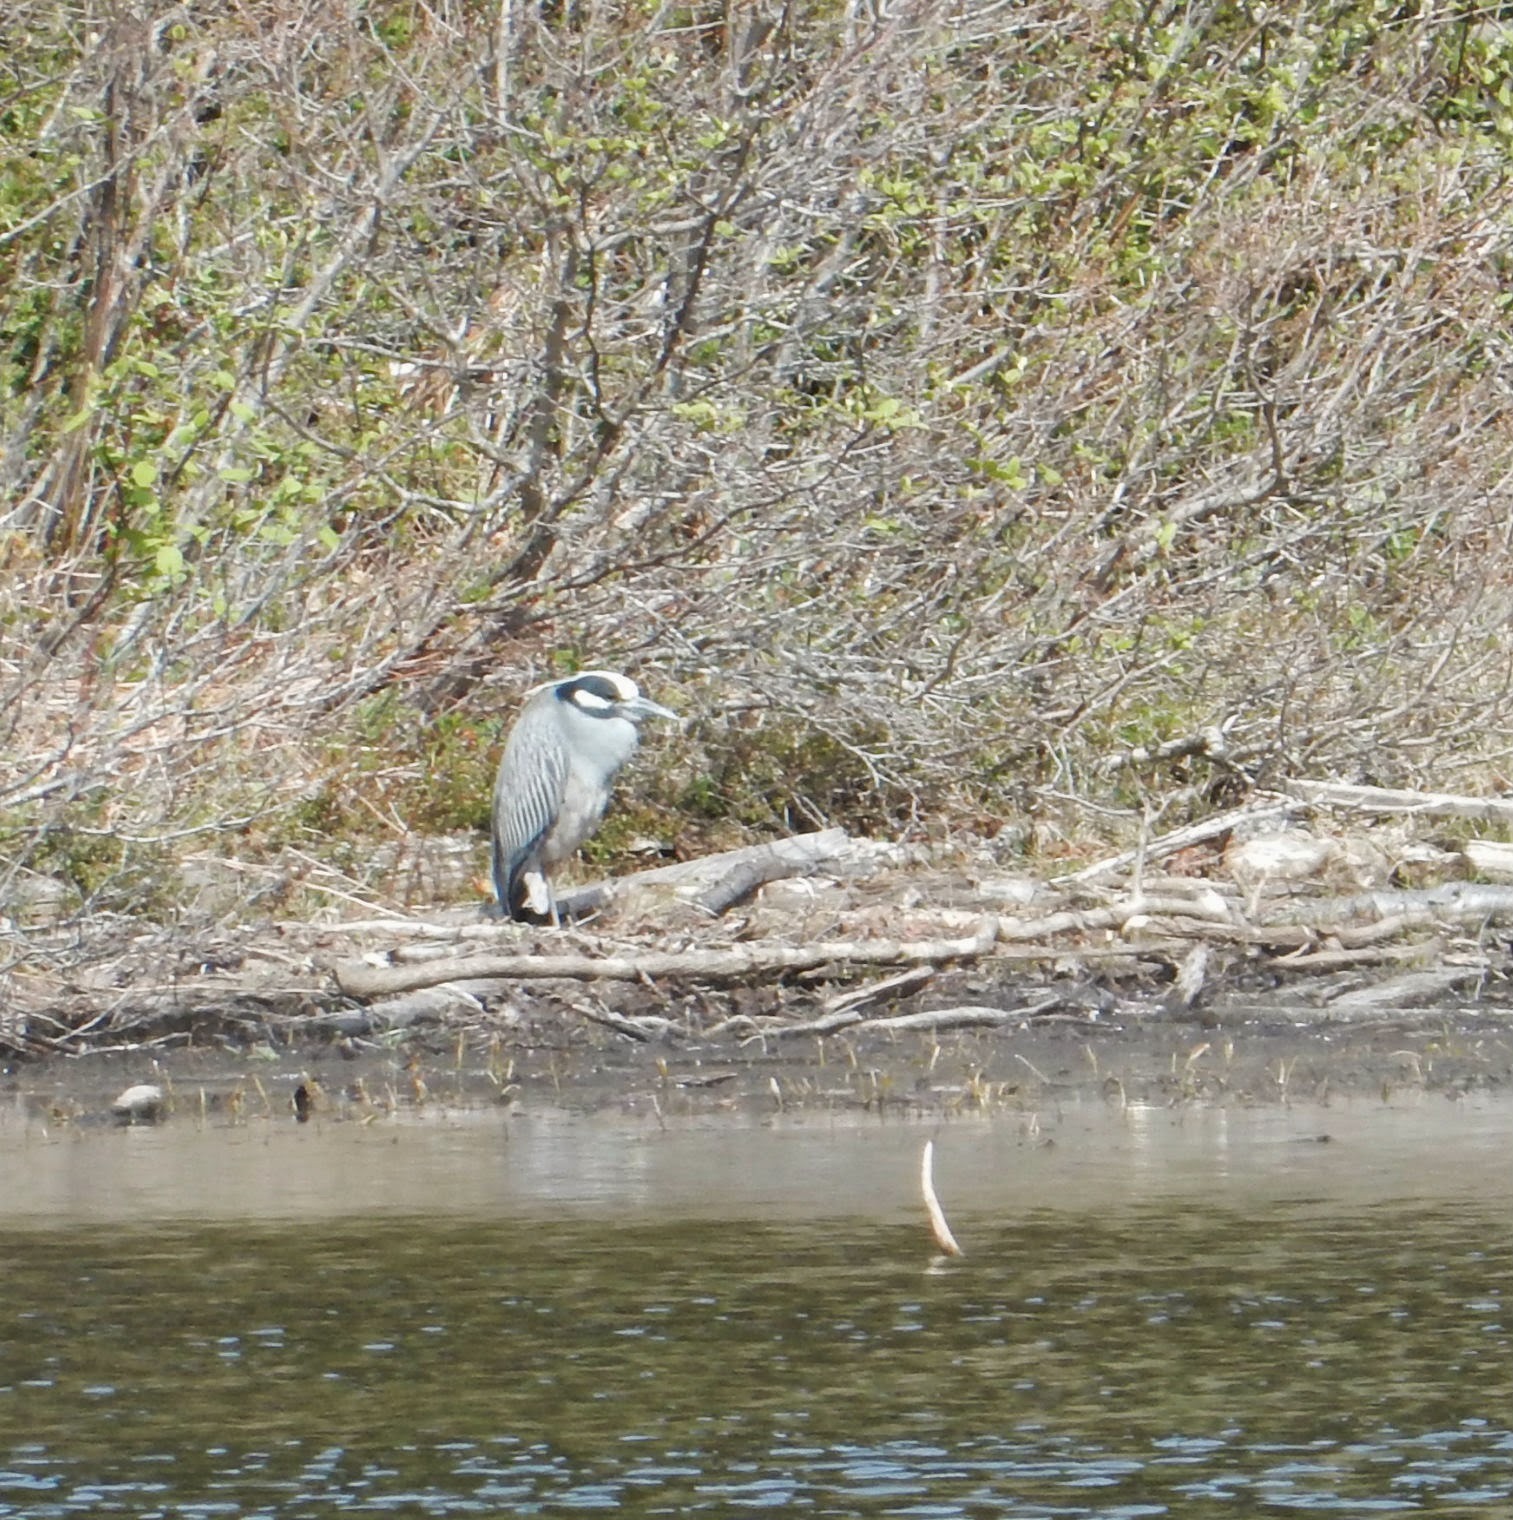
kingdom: Animalia
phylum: Chordata
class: Aves
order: Pelecaniformes
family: Ardeidae
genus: Nyctanassa
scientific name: Nyctanassa violacea
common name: Yellow-crowned night heron
